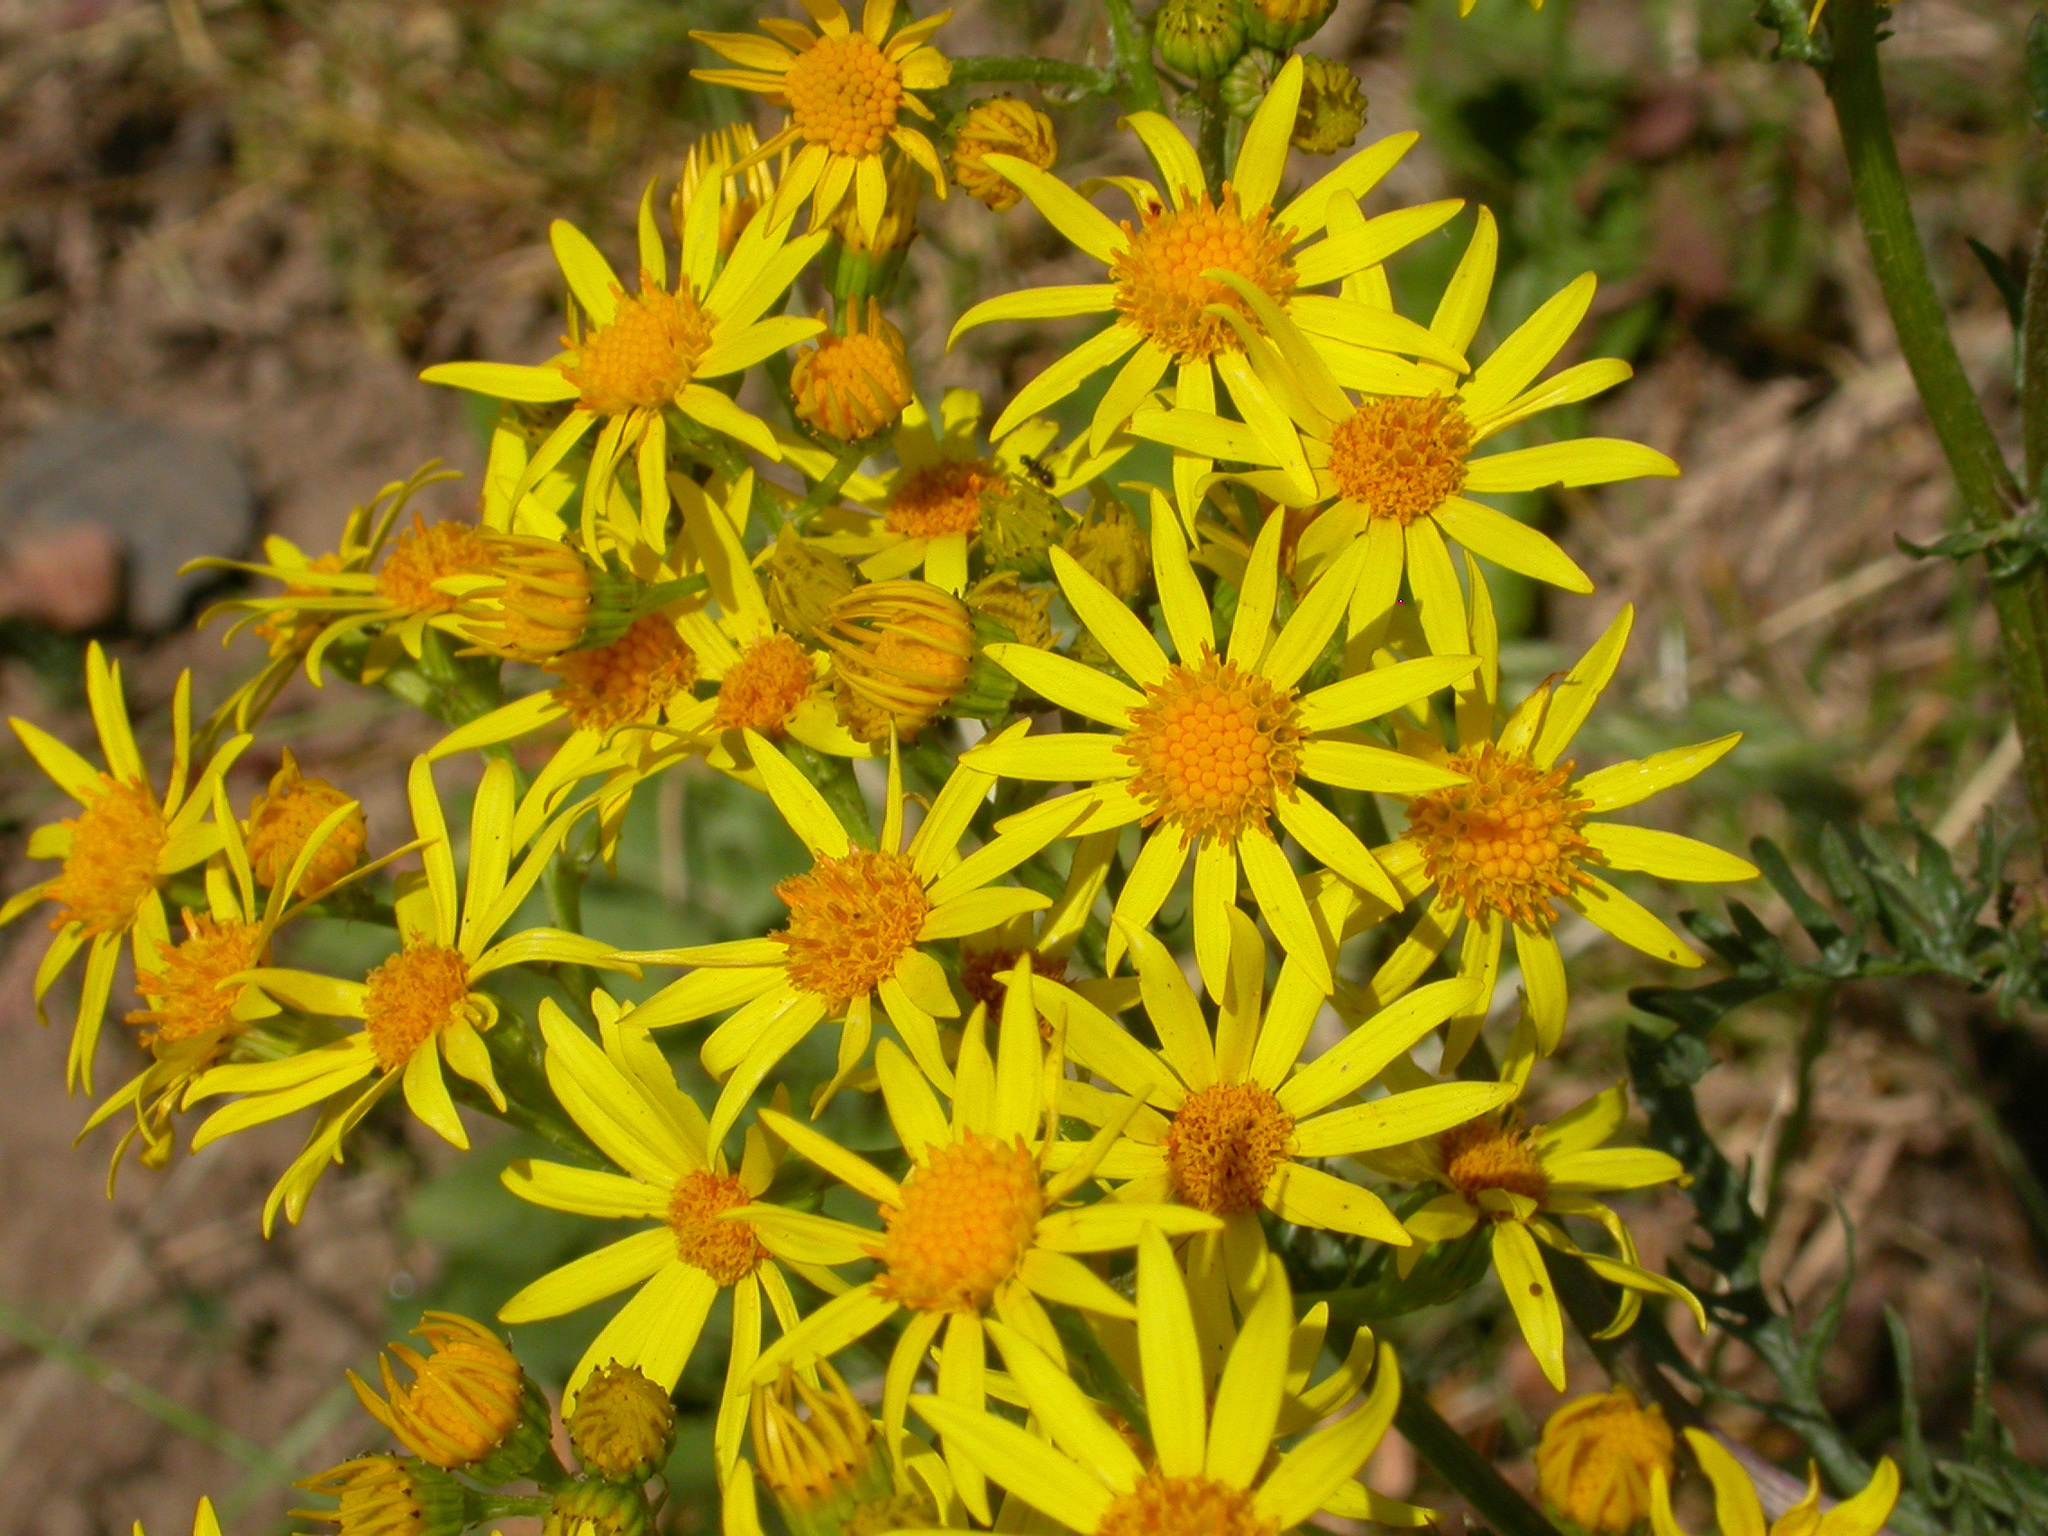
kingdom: Plantae
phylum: Tracheophyta
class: Magnoliopsida
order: Asterales
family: Asteraceae
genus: Jacobaea
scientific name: Jacobaea vulgaris
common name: Stinking willie
